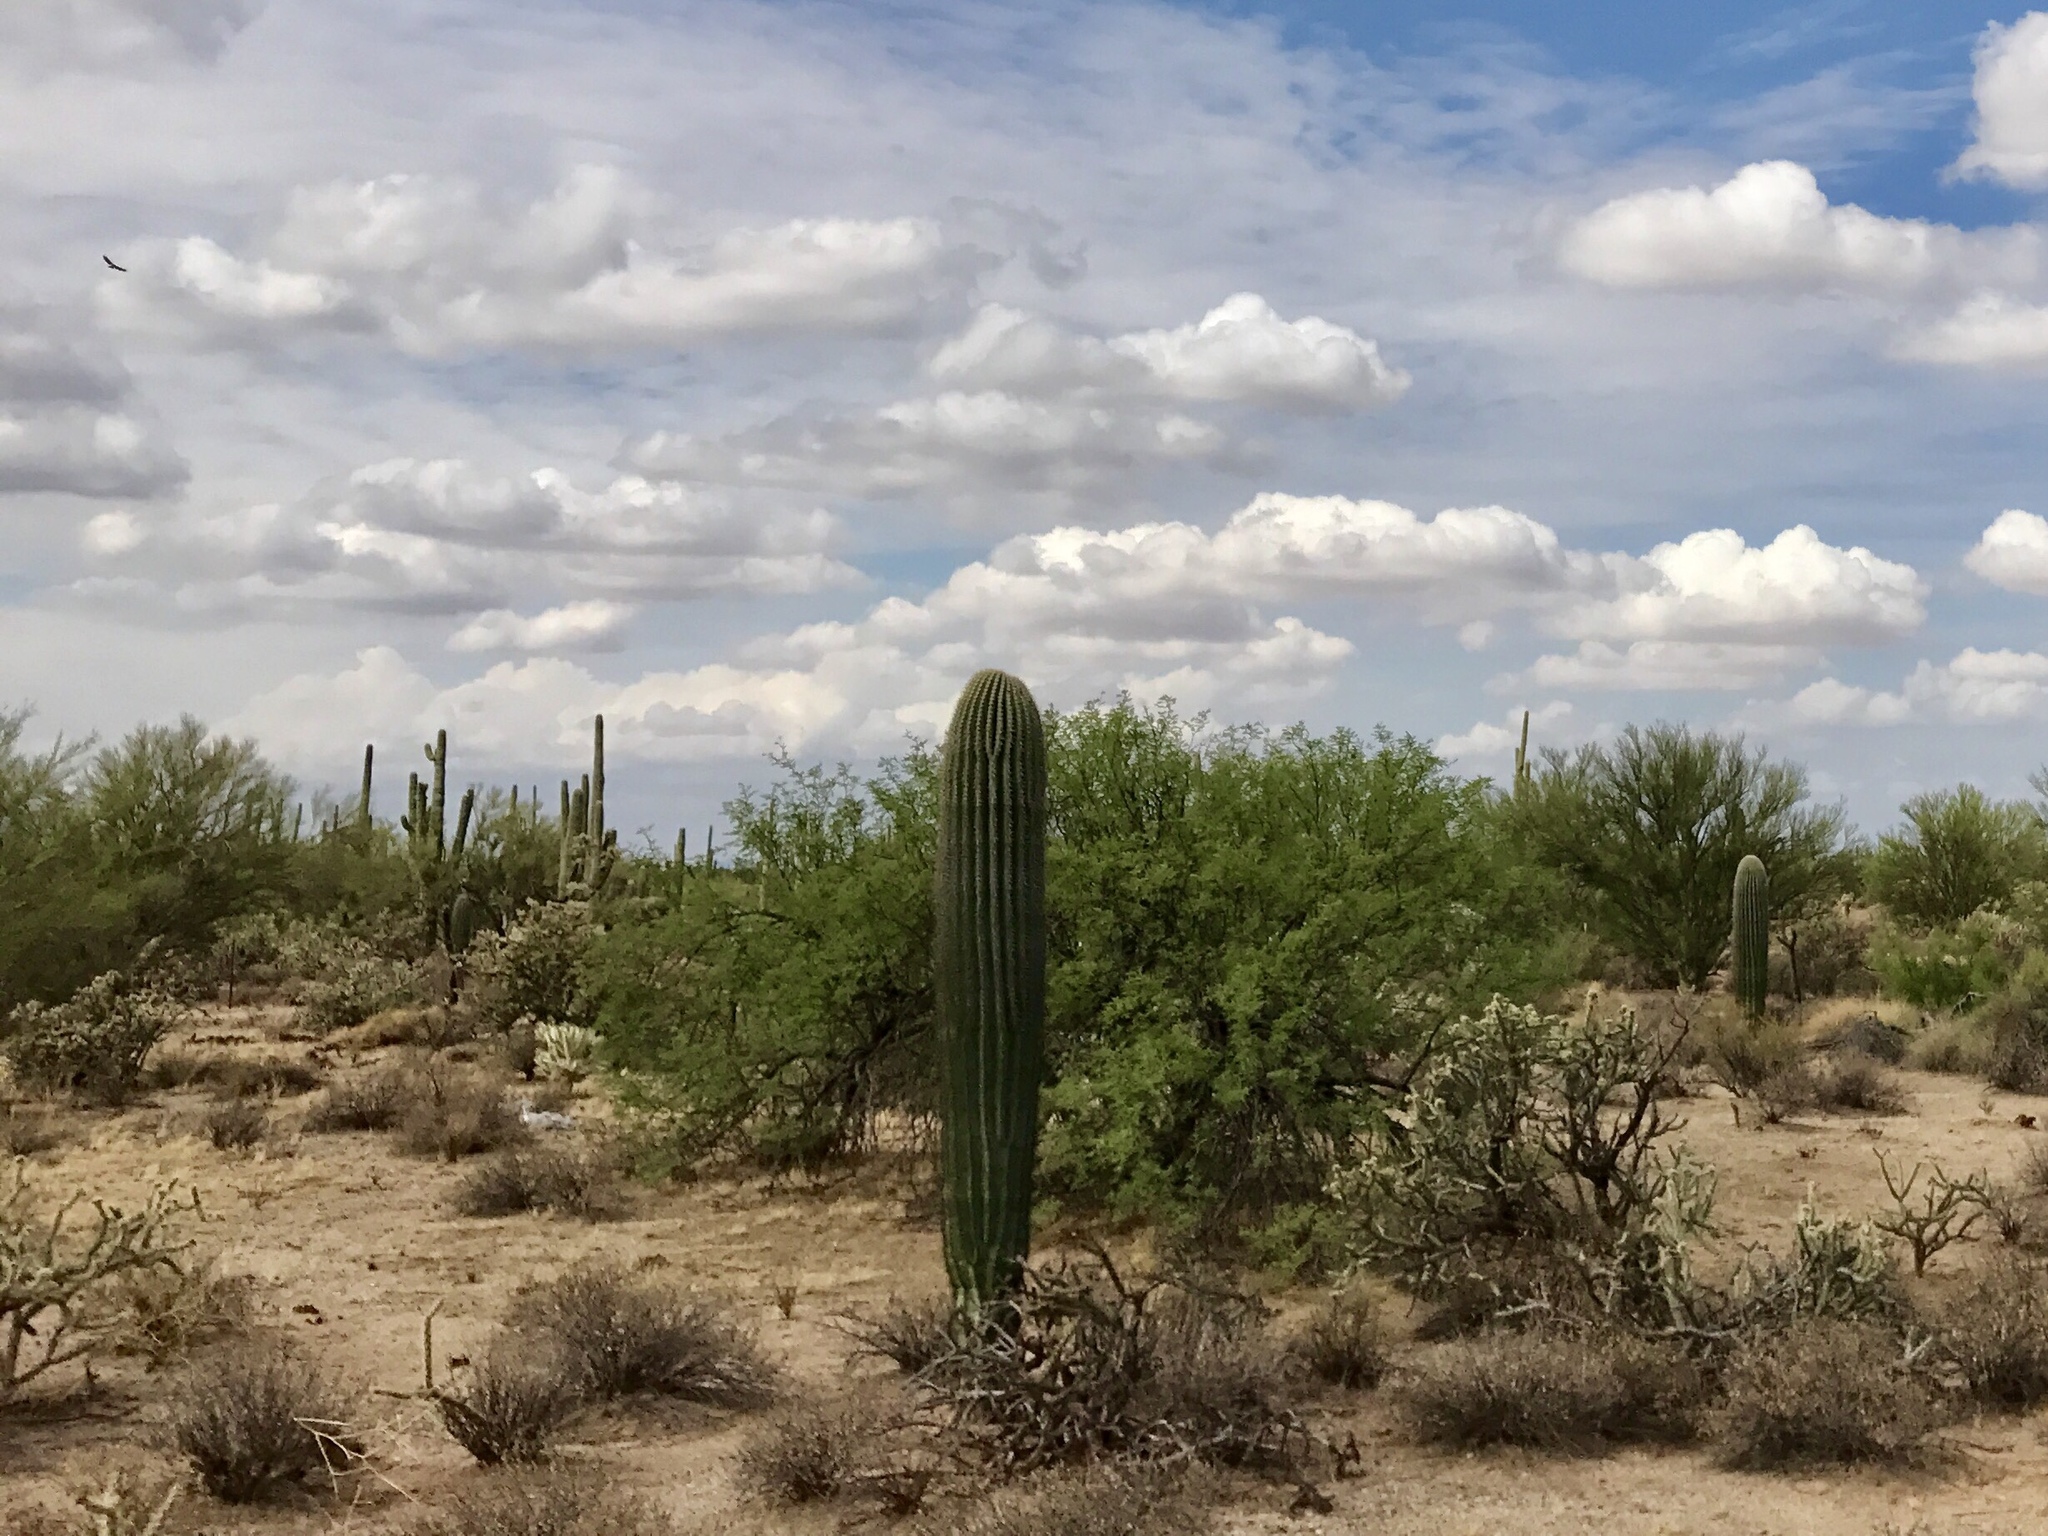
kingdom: Plantae
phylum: Tracheophyta
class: Magnoliopsida
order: Caryophyllales
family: Cactaceae
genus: Carnegiea
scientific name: Carnegiea gigantea
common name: Saguaro
